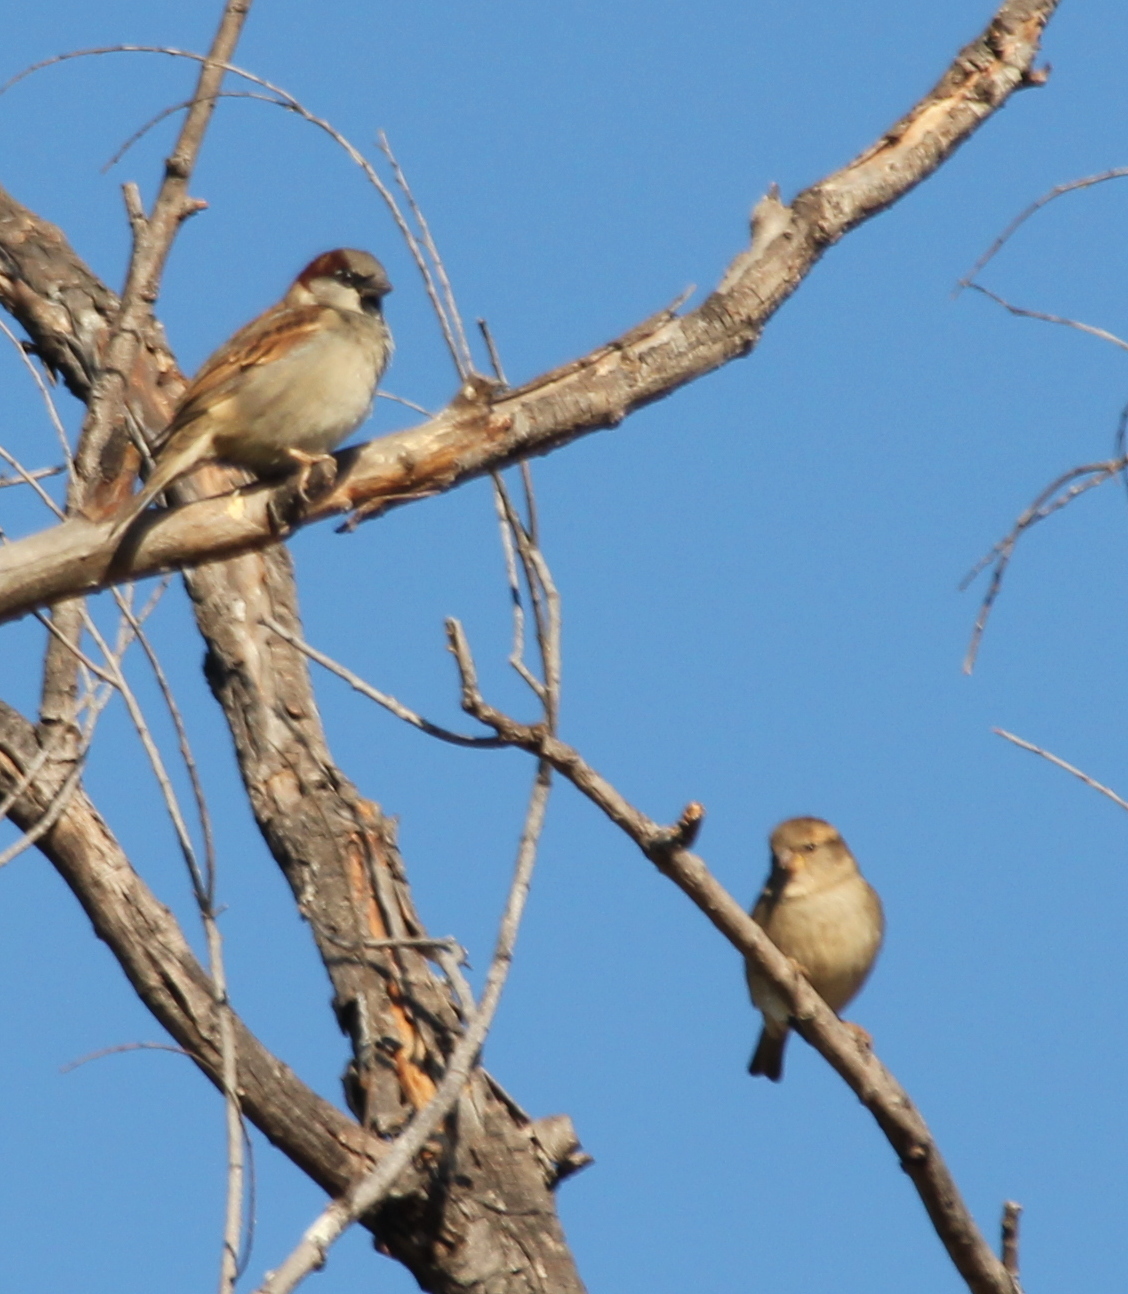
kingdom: Animalia
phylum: Chordata
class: Aves
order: Passeriformes
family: Passeridae
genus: Passer
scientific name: Passer domesticus
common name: House sparrow
